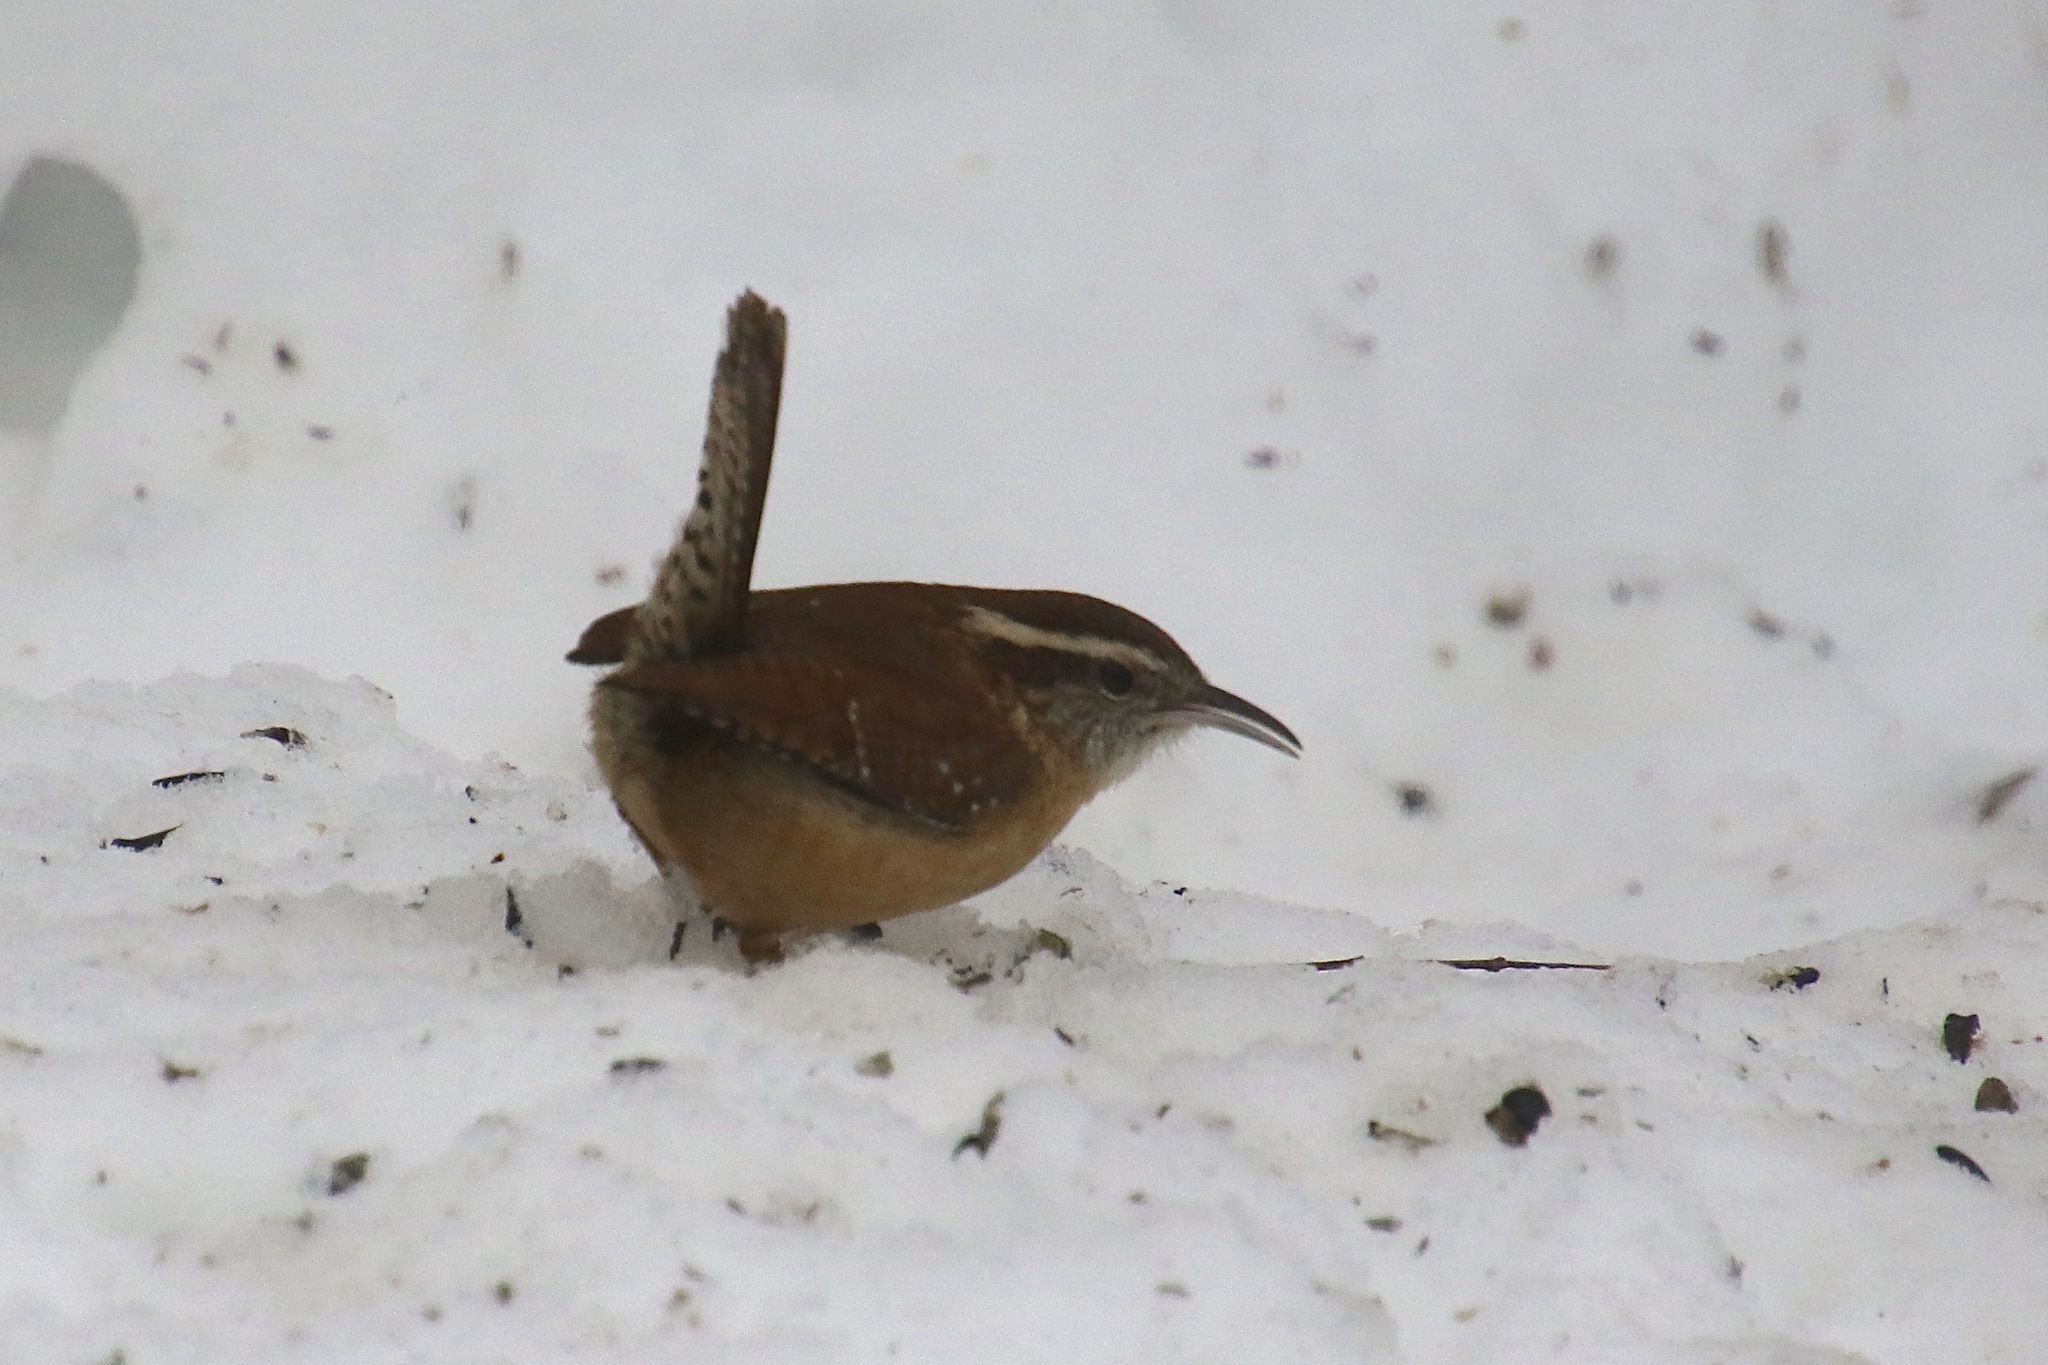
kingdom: Animalia
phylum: Chordata
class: Aves
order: Passeriformes
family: Troglodytidae
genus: Thryothorus
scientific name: Thryothorus ludovicianus
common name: Carolina wren
